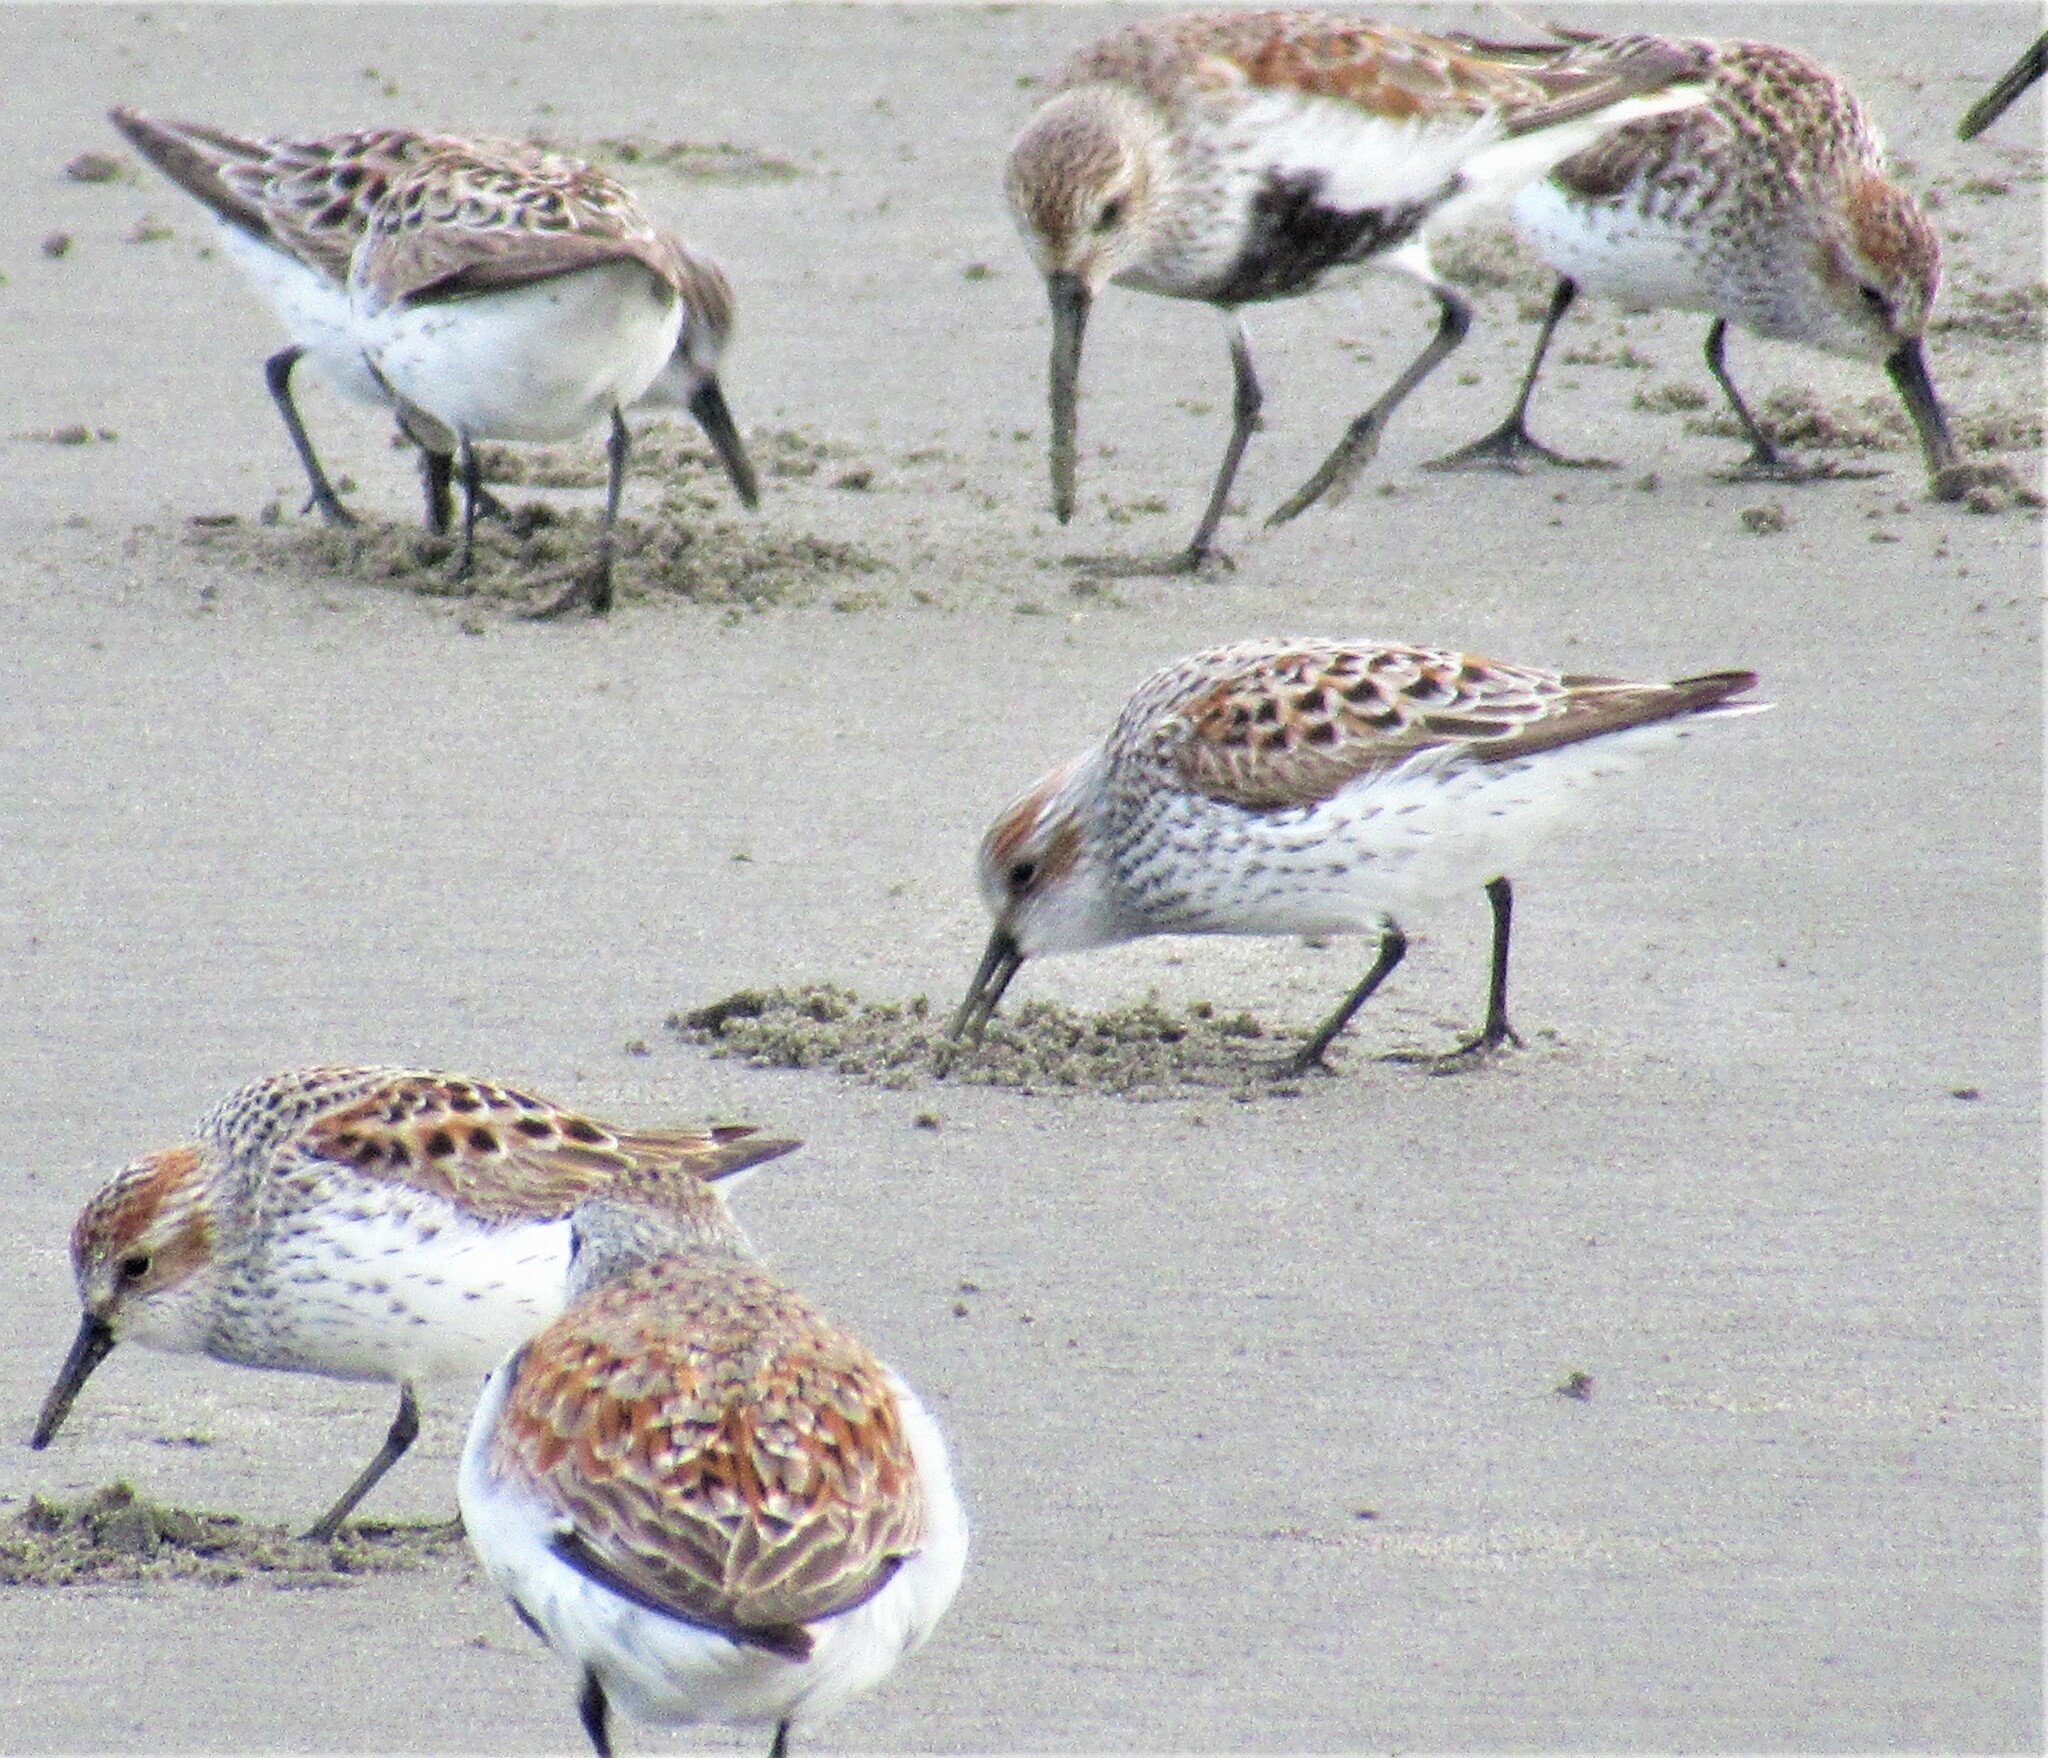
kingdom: Animalia
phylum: Chordata
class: Aves
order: Charadriiformes
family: Scolopacidae
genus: Calidris
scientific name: Calidris mauri
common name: Western sandpiper
